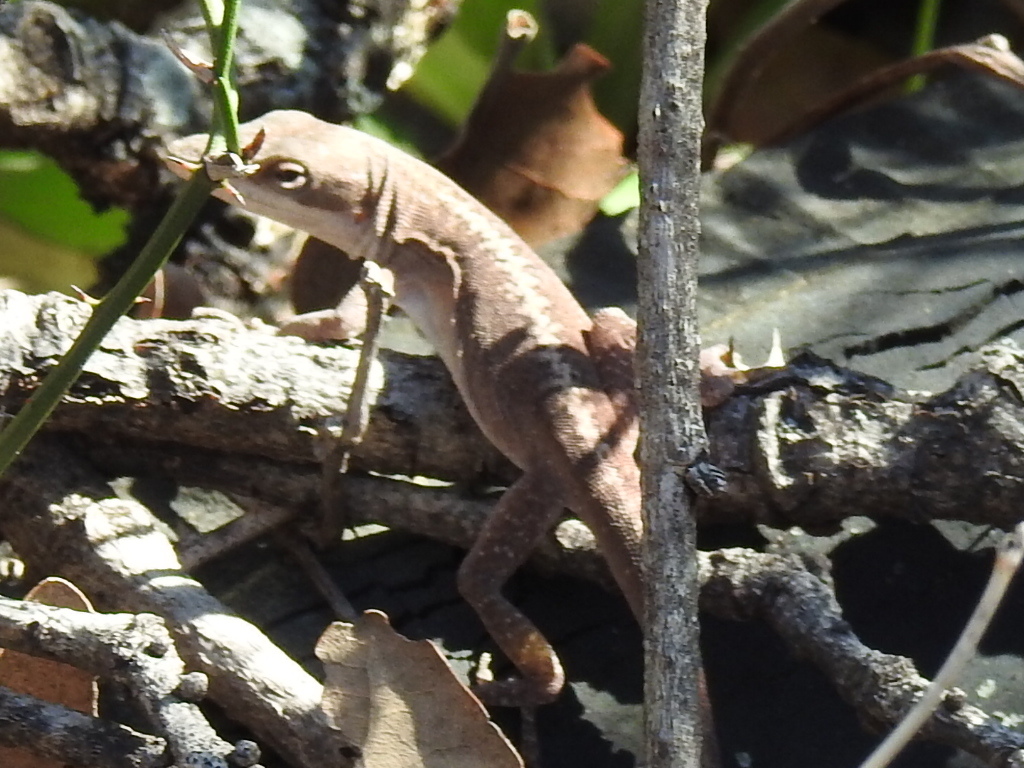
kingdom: Animalia
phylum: Chordata
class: Squamata
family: Dactyloidae
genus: Anolis
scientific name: Anolis carolinensis
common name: Green anole
